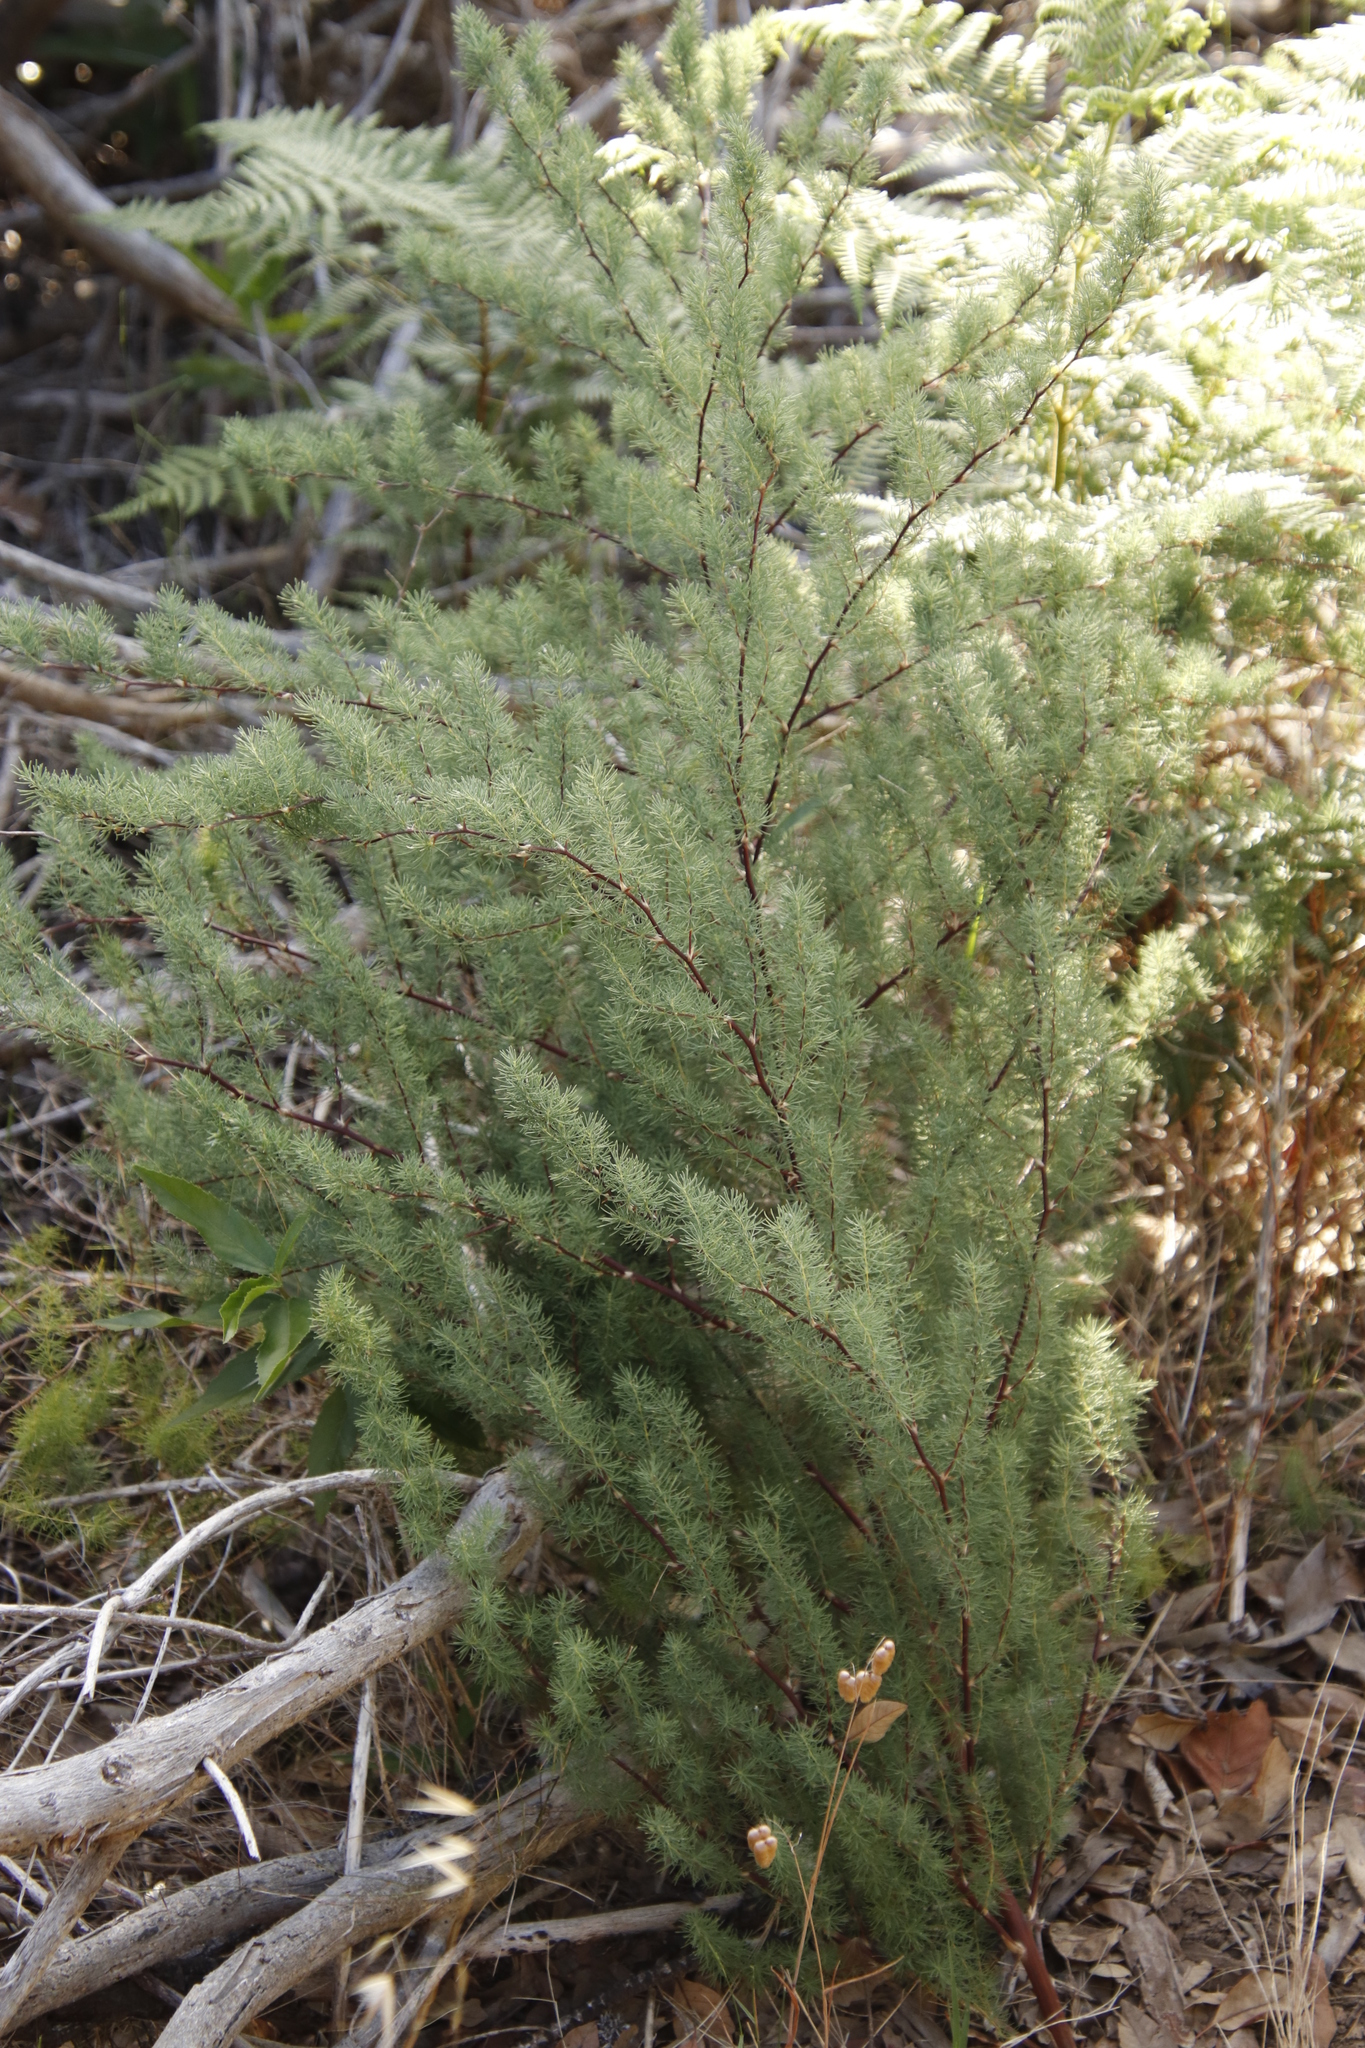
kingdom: Plantae
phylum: Tracheophyta
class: Liliopsida
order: Asparagales
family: Asparagaceae
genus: Asparagus
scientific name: Asparagus rubicundus
